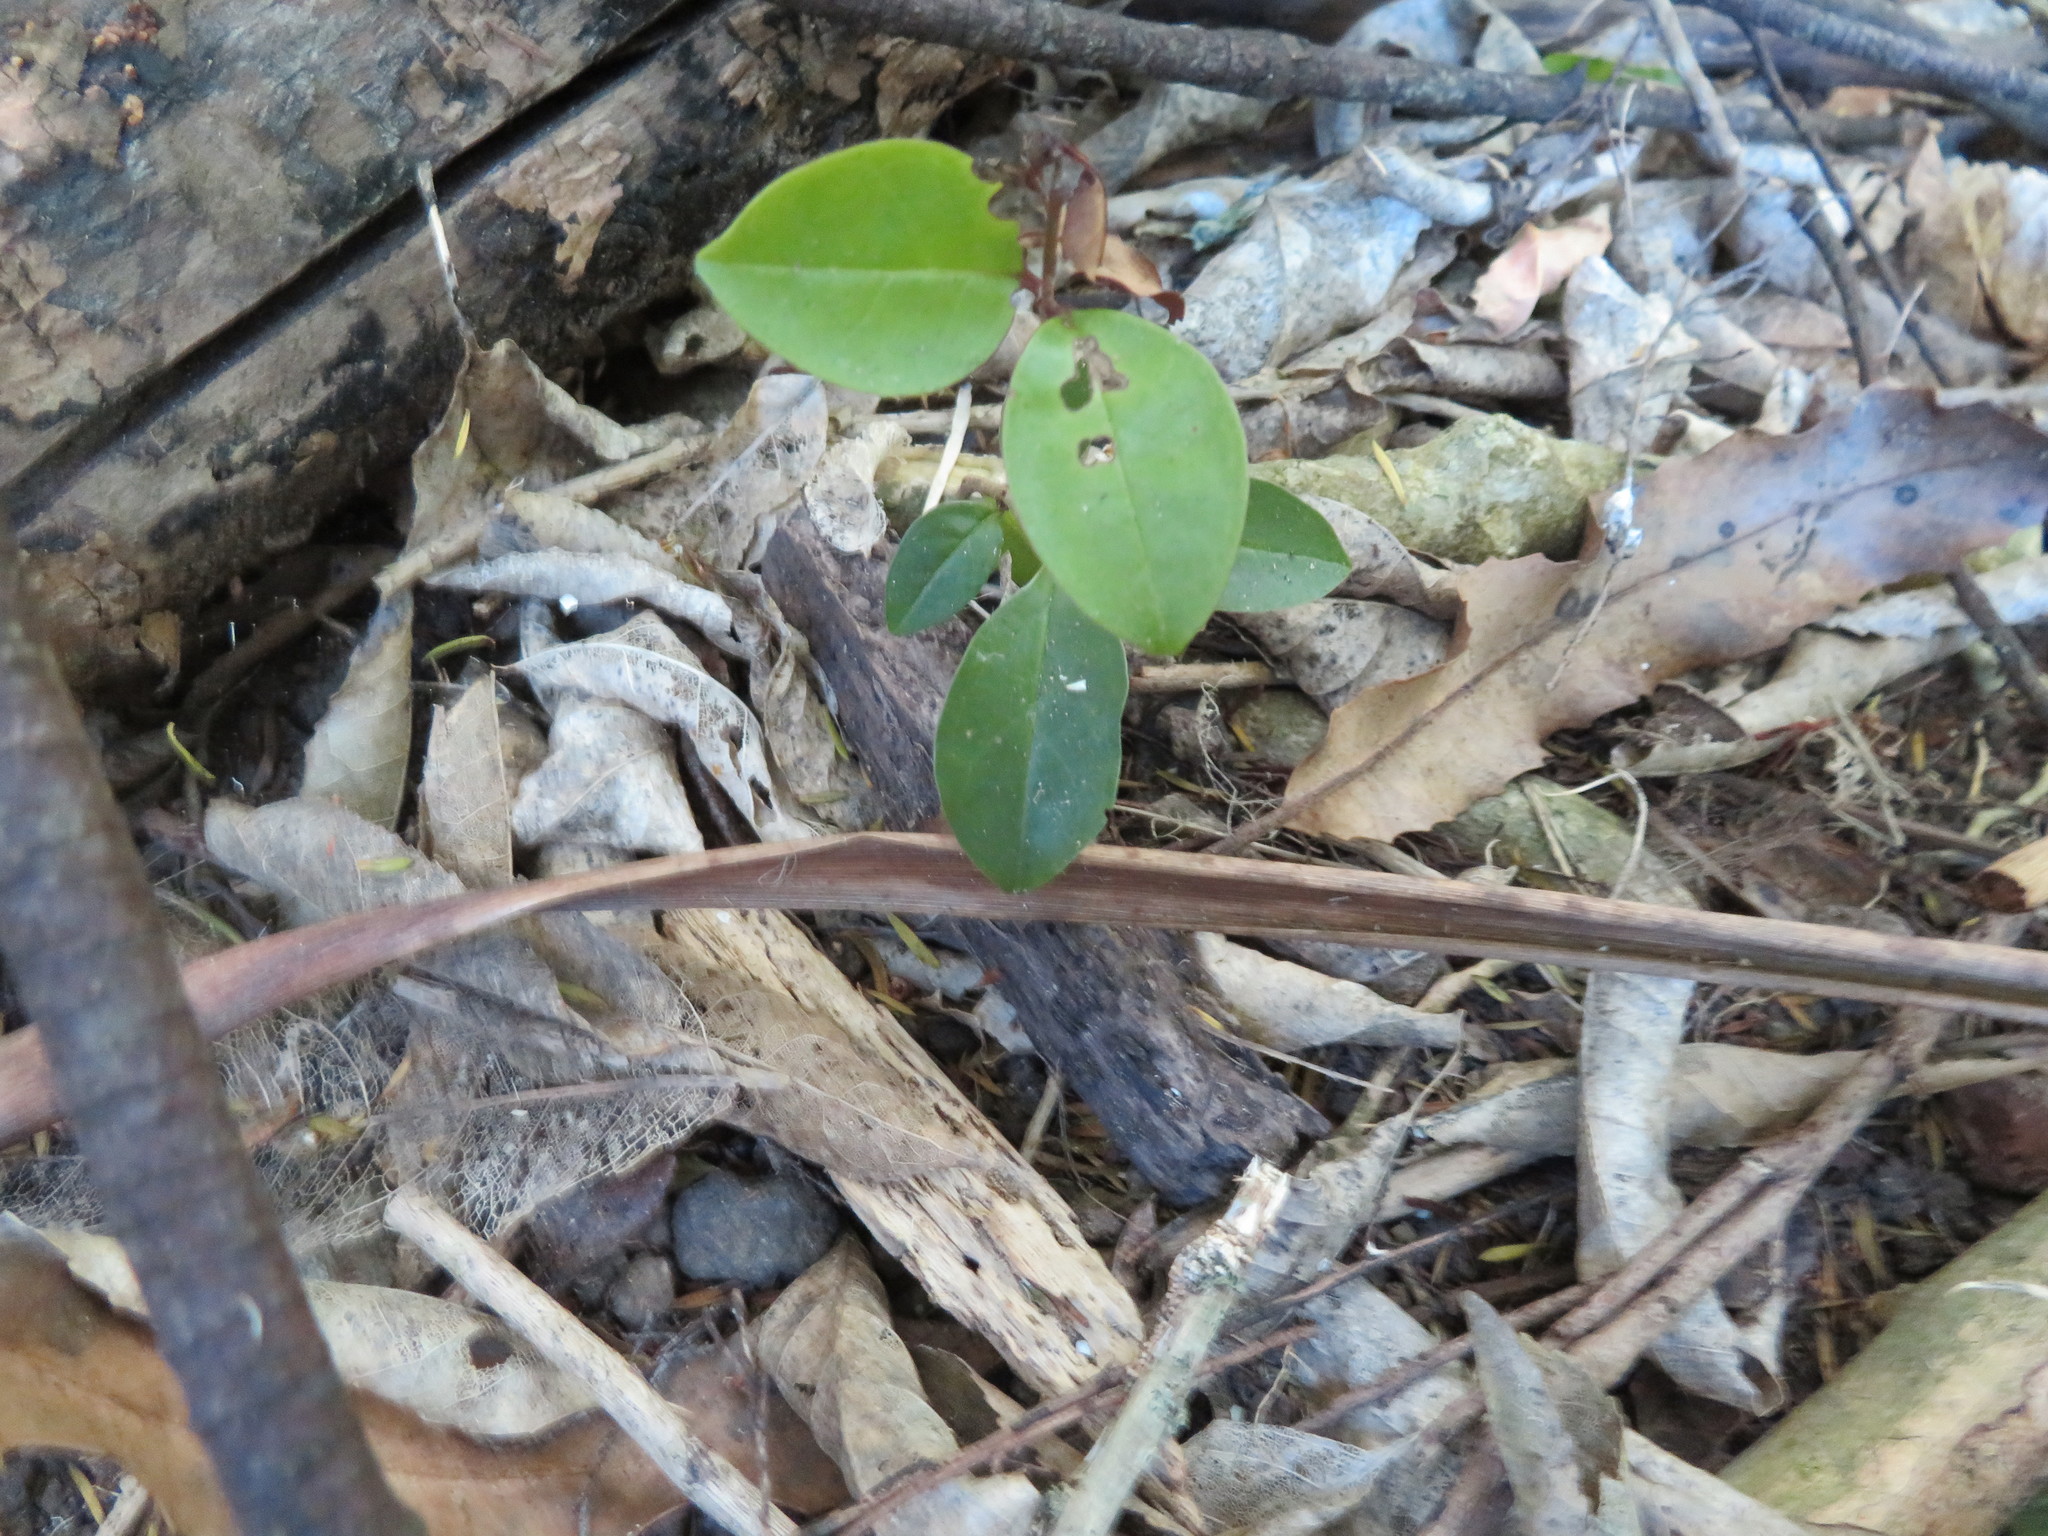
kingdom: Plantae
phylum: Tracheophyta
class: Magnoliopsida
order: Lamiales
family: Oleaceae
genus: Ligustrum
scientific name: Ligustrum lucidum
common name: Glossy privet
